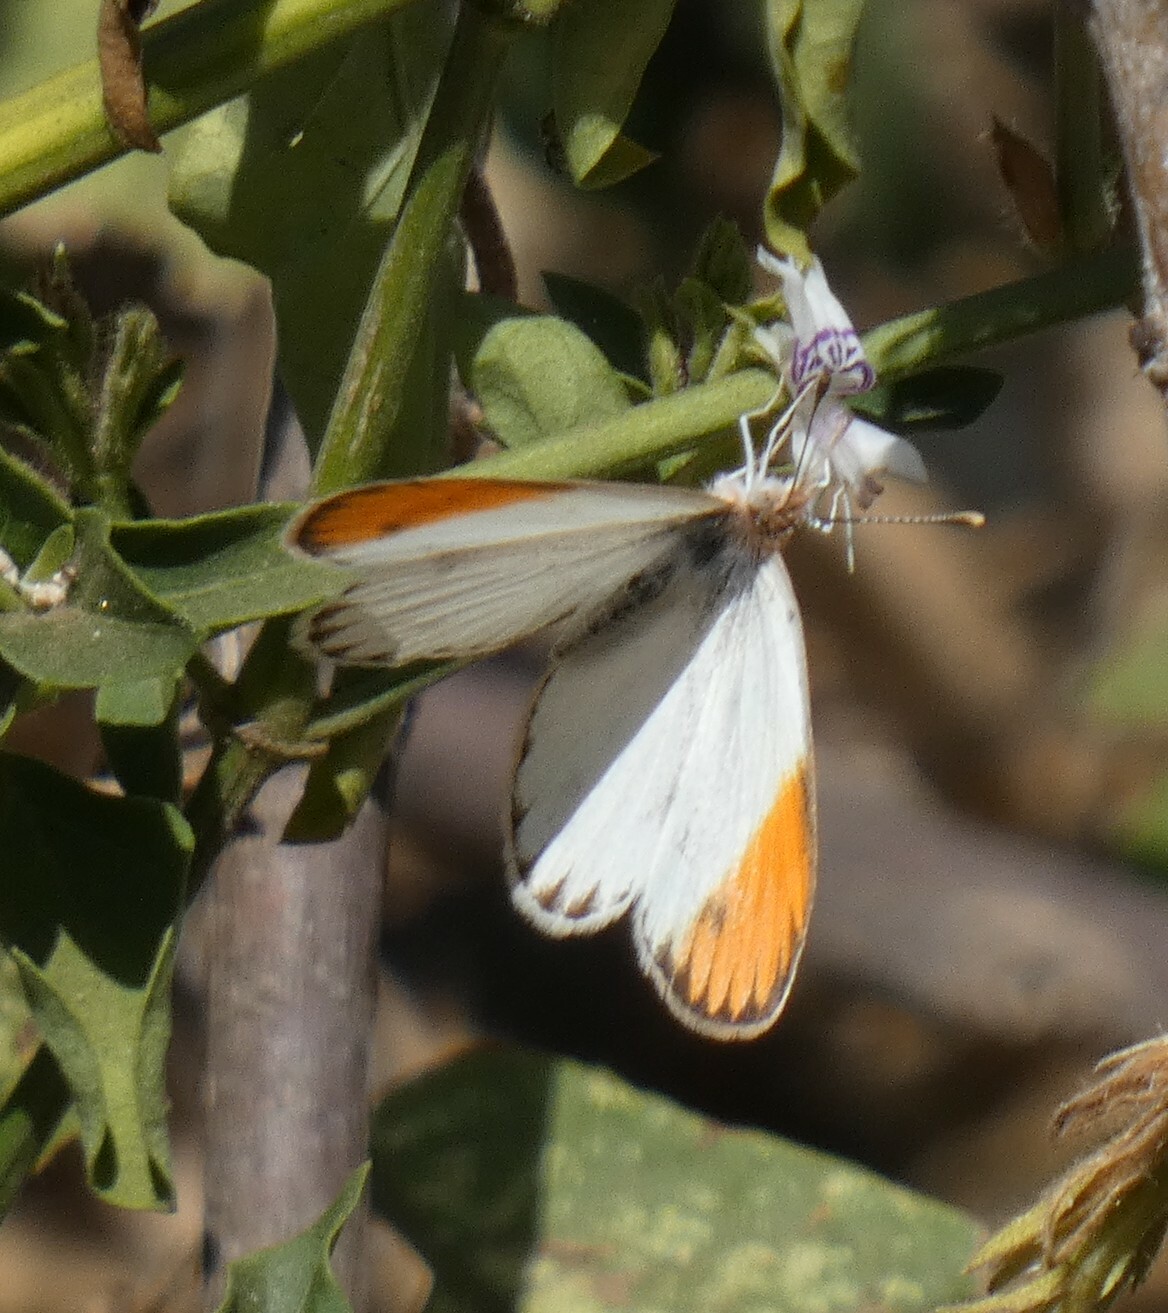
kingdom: Animalia
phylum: Arthropoda
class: Insecta
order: Lepidoptera
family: Pieridae
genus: Colotis
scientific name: Colotis evagore
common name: Desert orange-tip
